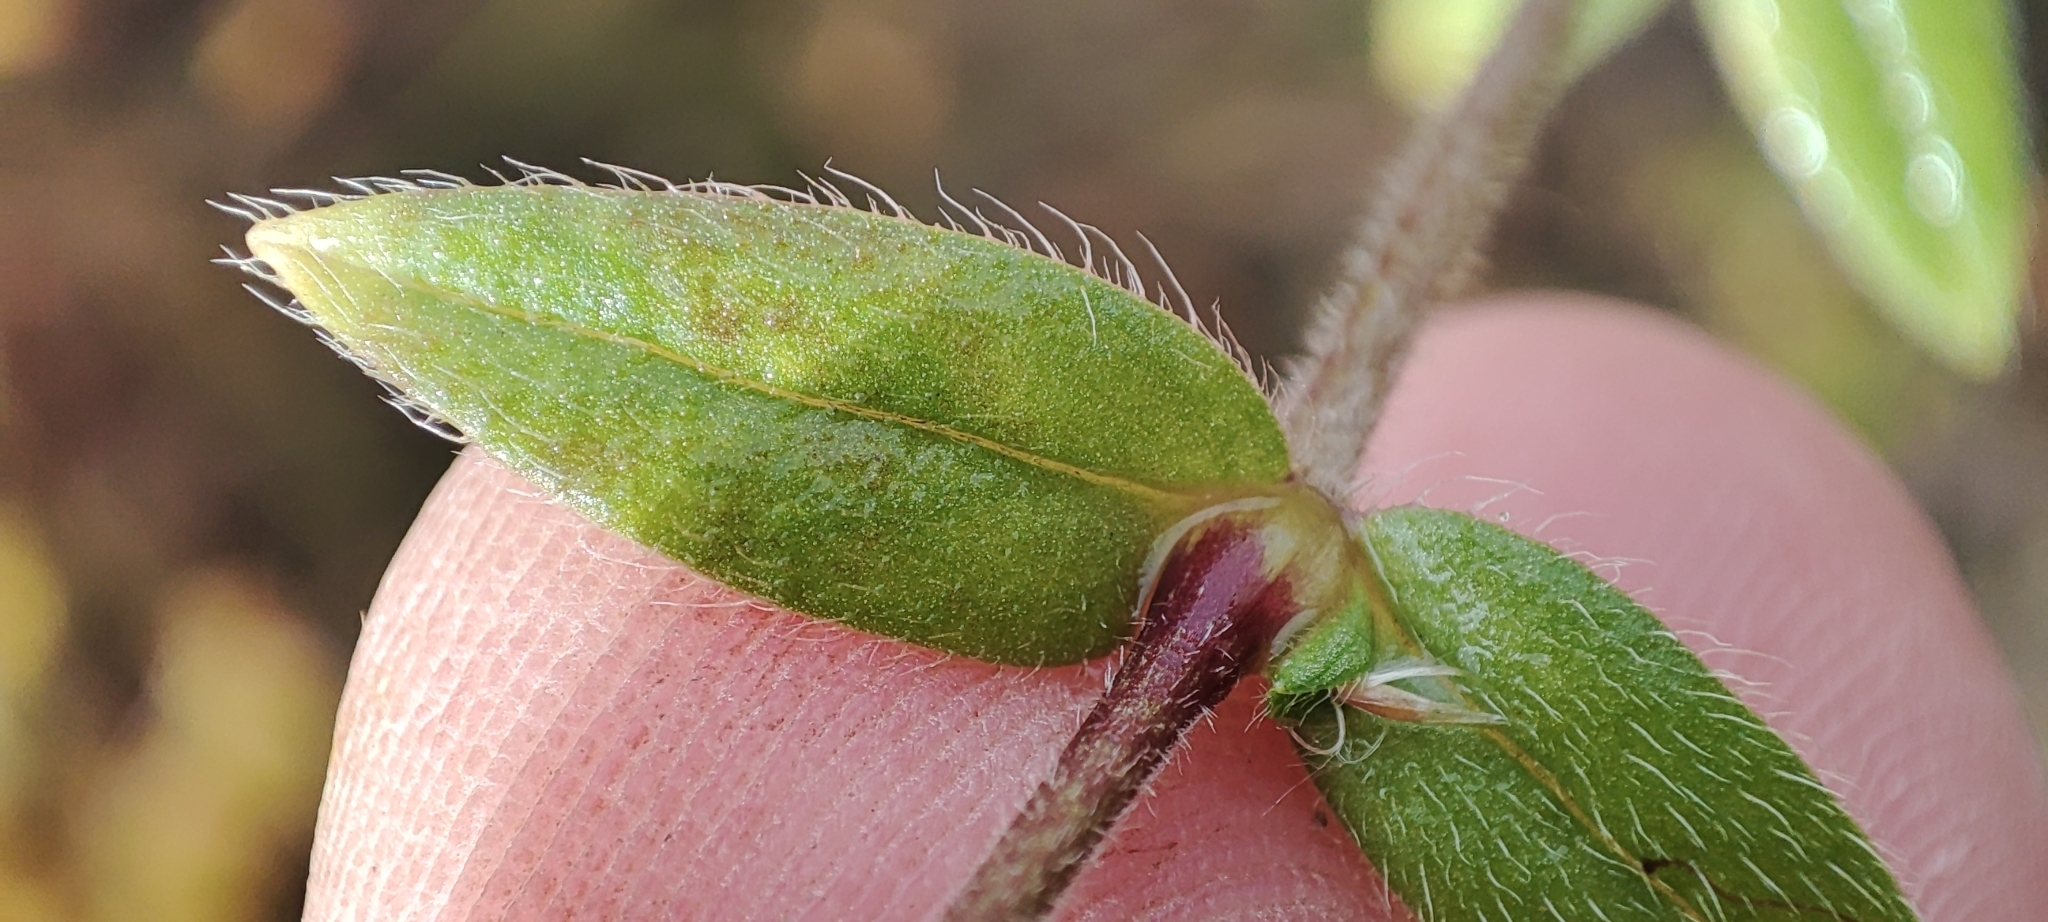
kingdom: Plantae
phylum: Tracheophyta
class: Magnoliopsida
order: Caryophyllales
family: Caryophyllaceae
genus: Cerastium
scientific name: Cerastium holosteoides
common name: Big chickweed
